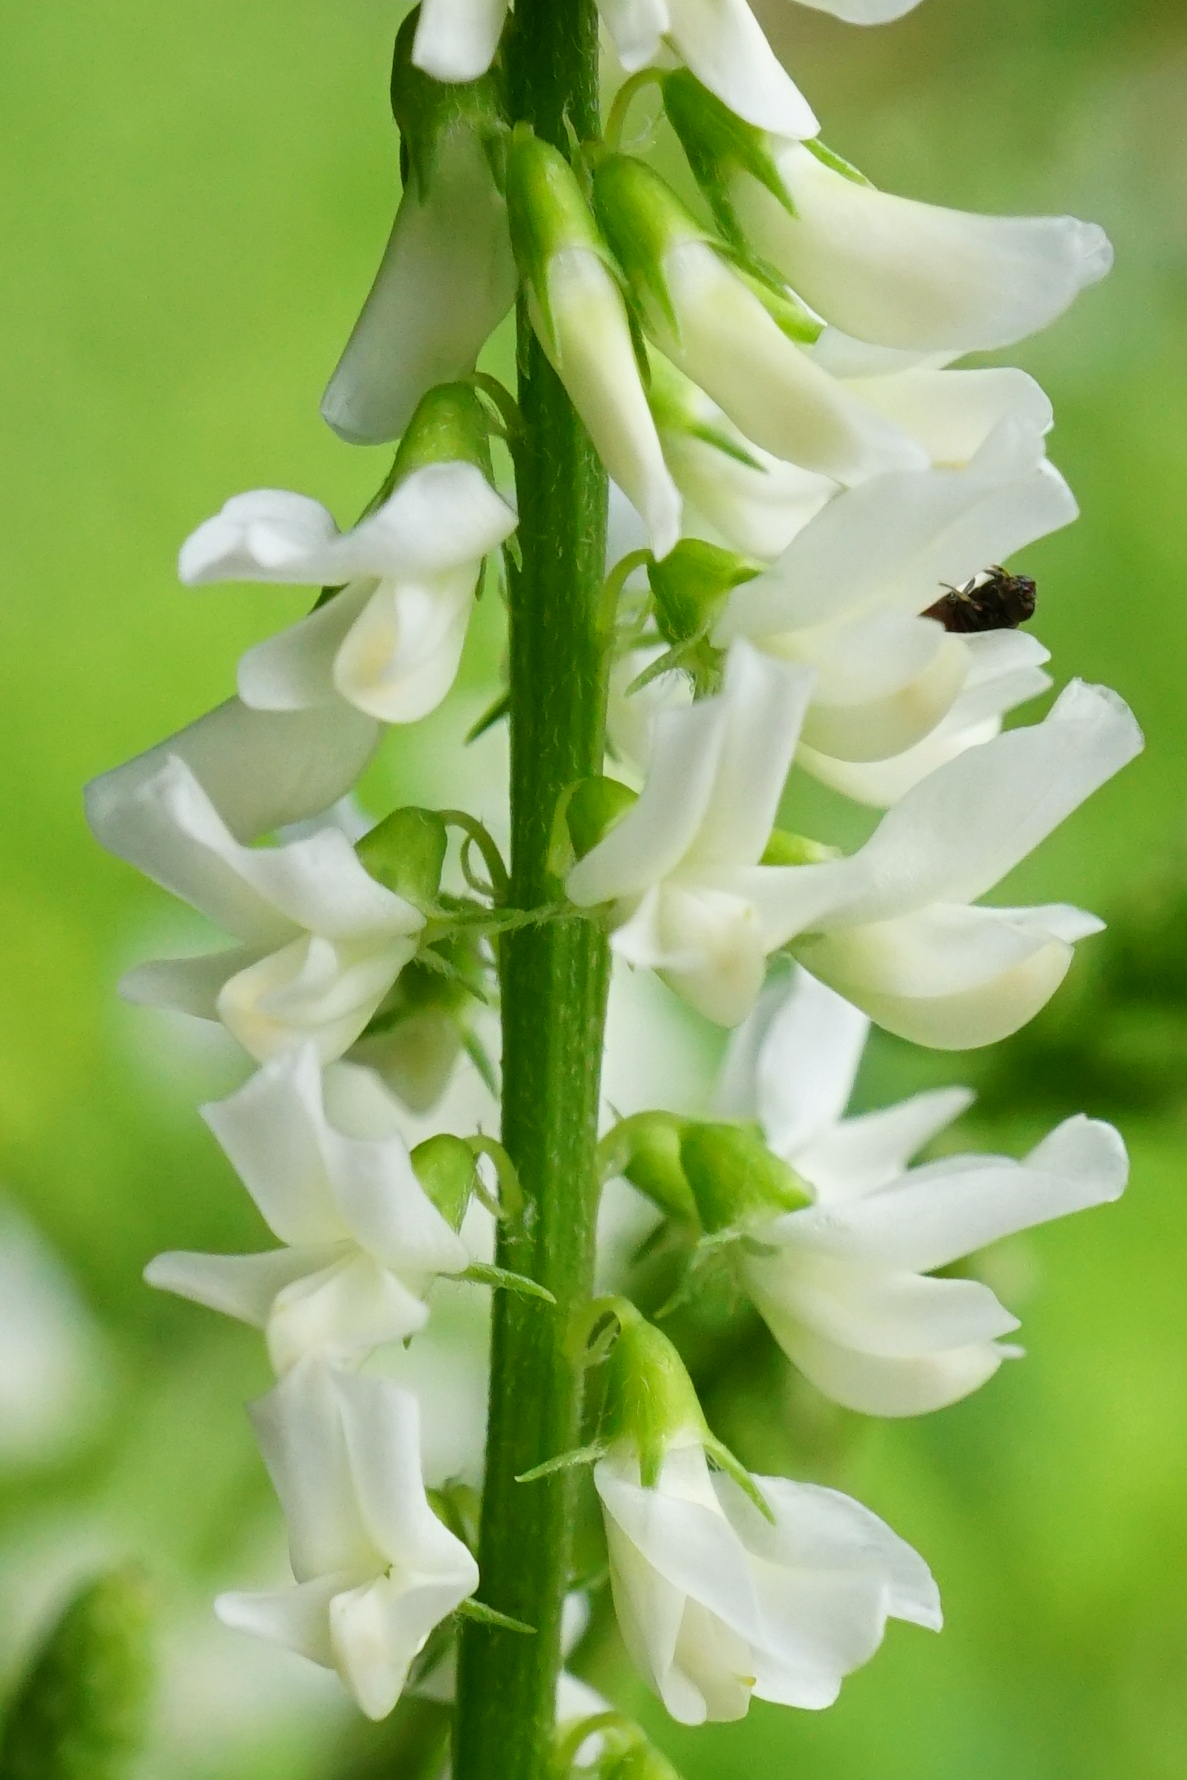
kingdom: Plantae
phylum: Tracheophyta
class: Magnoliopsida
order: Fabales
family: Fabaceae
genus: Melilotus
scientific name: Melilotus albus
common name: White melilot
